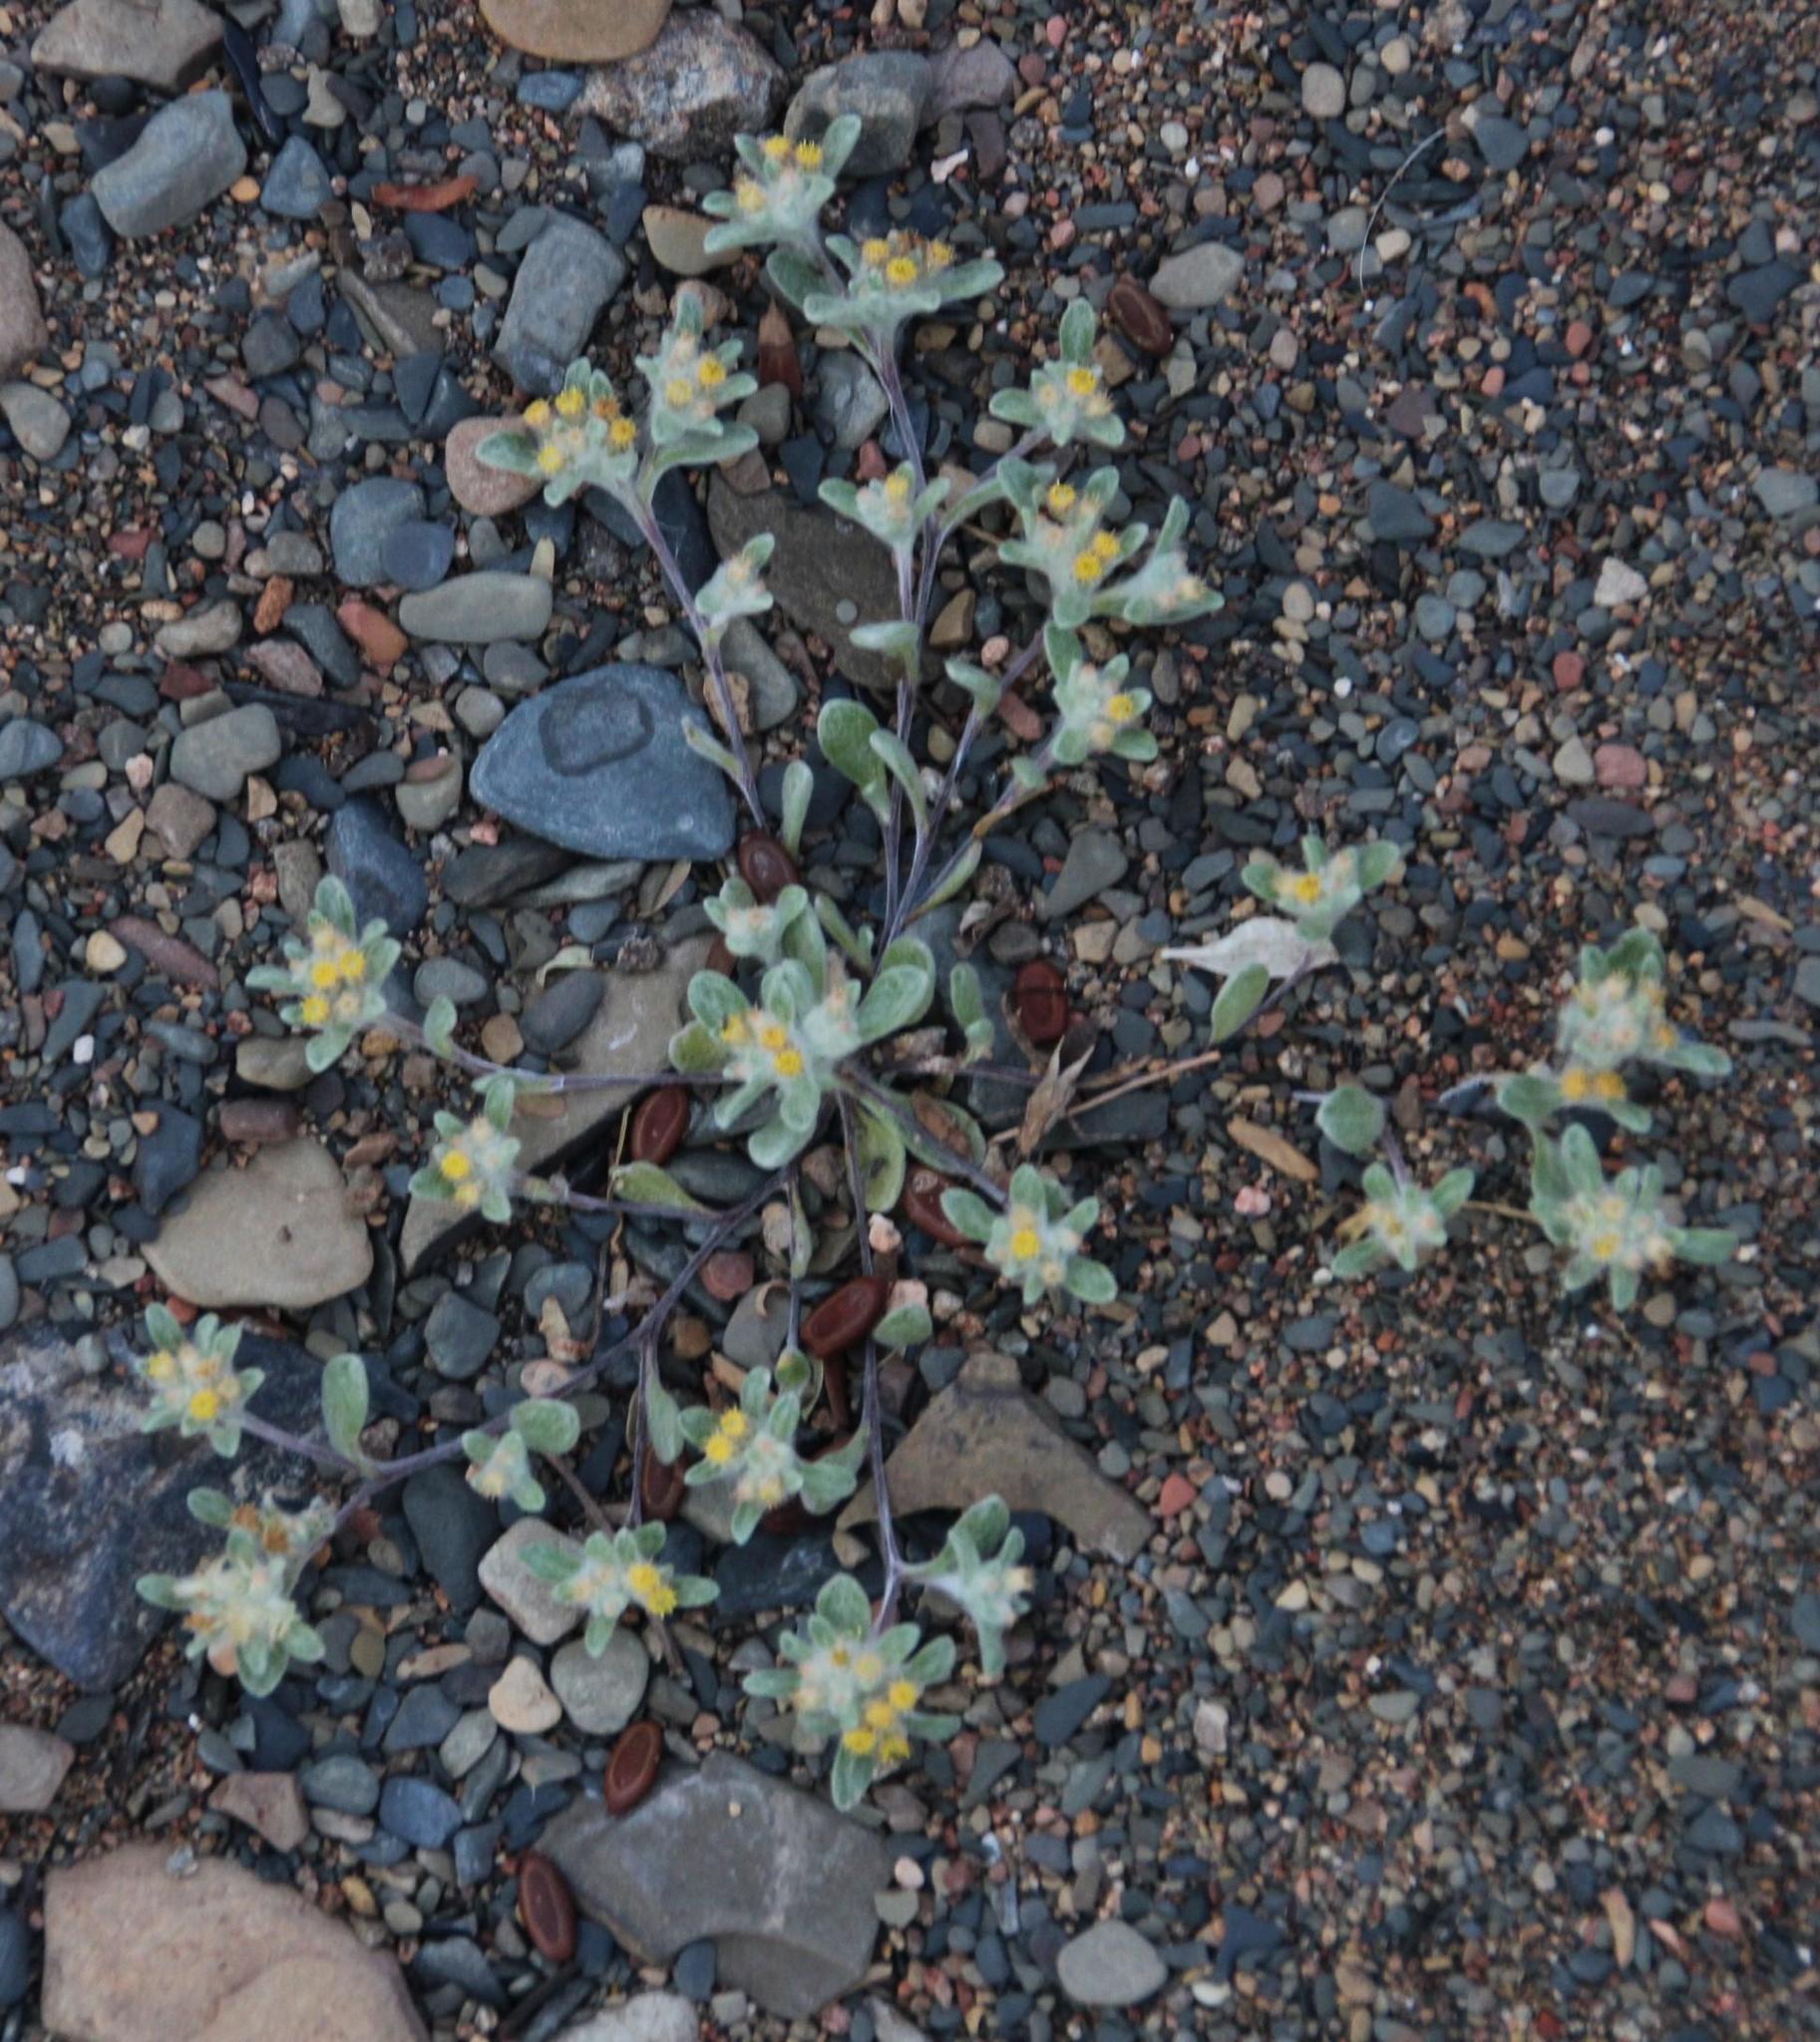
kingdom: Plantae
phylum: Tracheophyta
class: Magnoliopsida
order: Asterales
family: Asteraceae
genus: Helichrysum
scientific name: Helichrysum leontonyx
